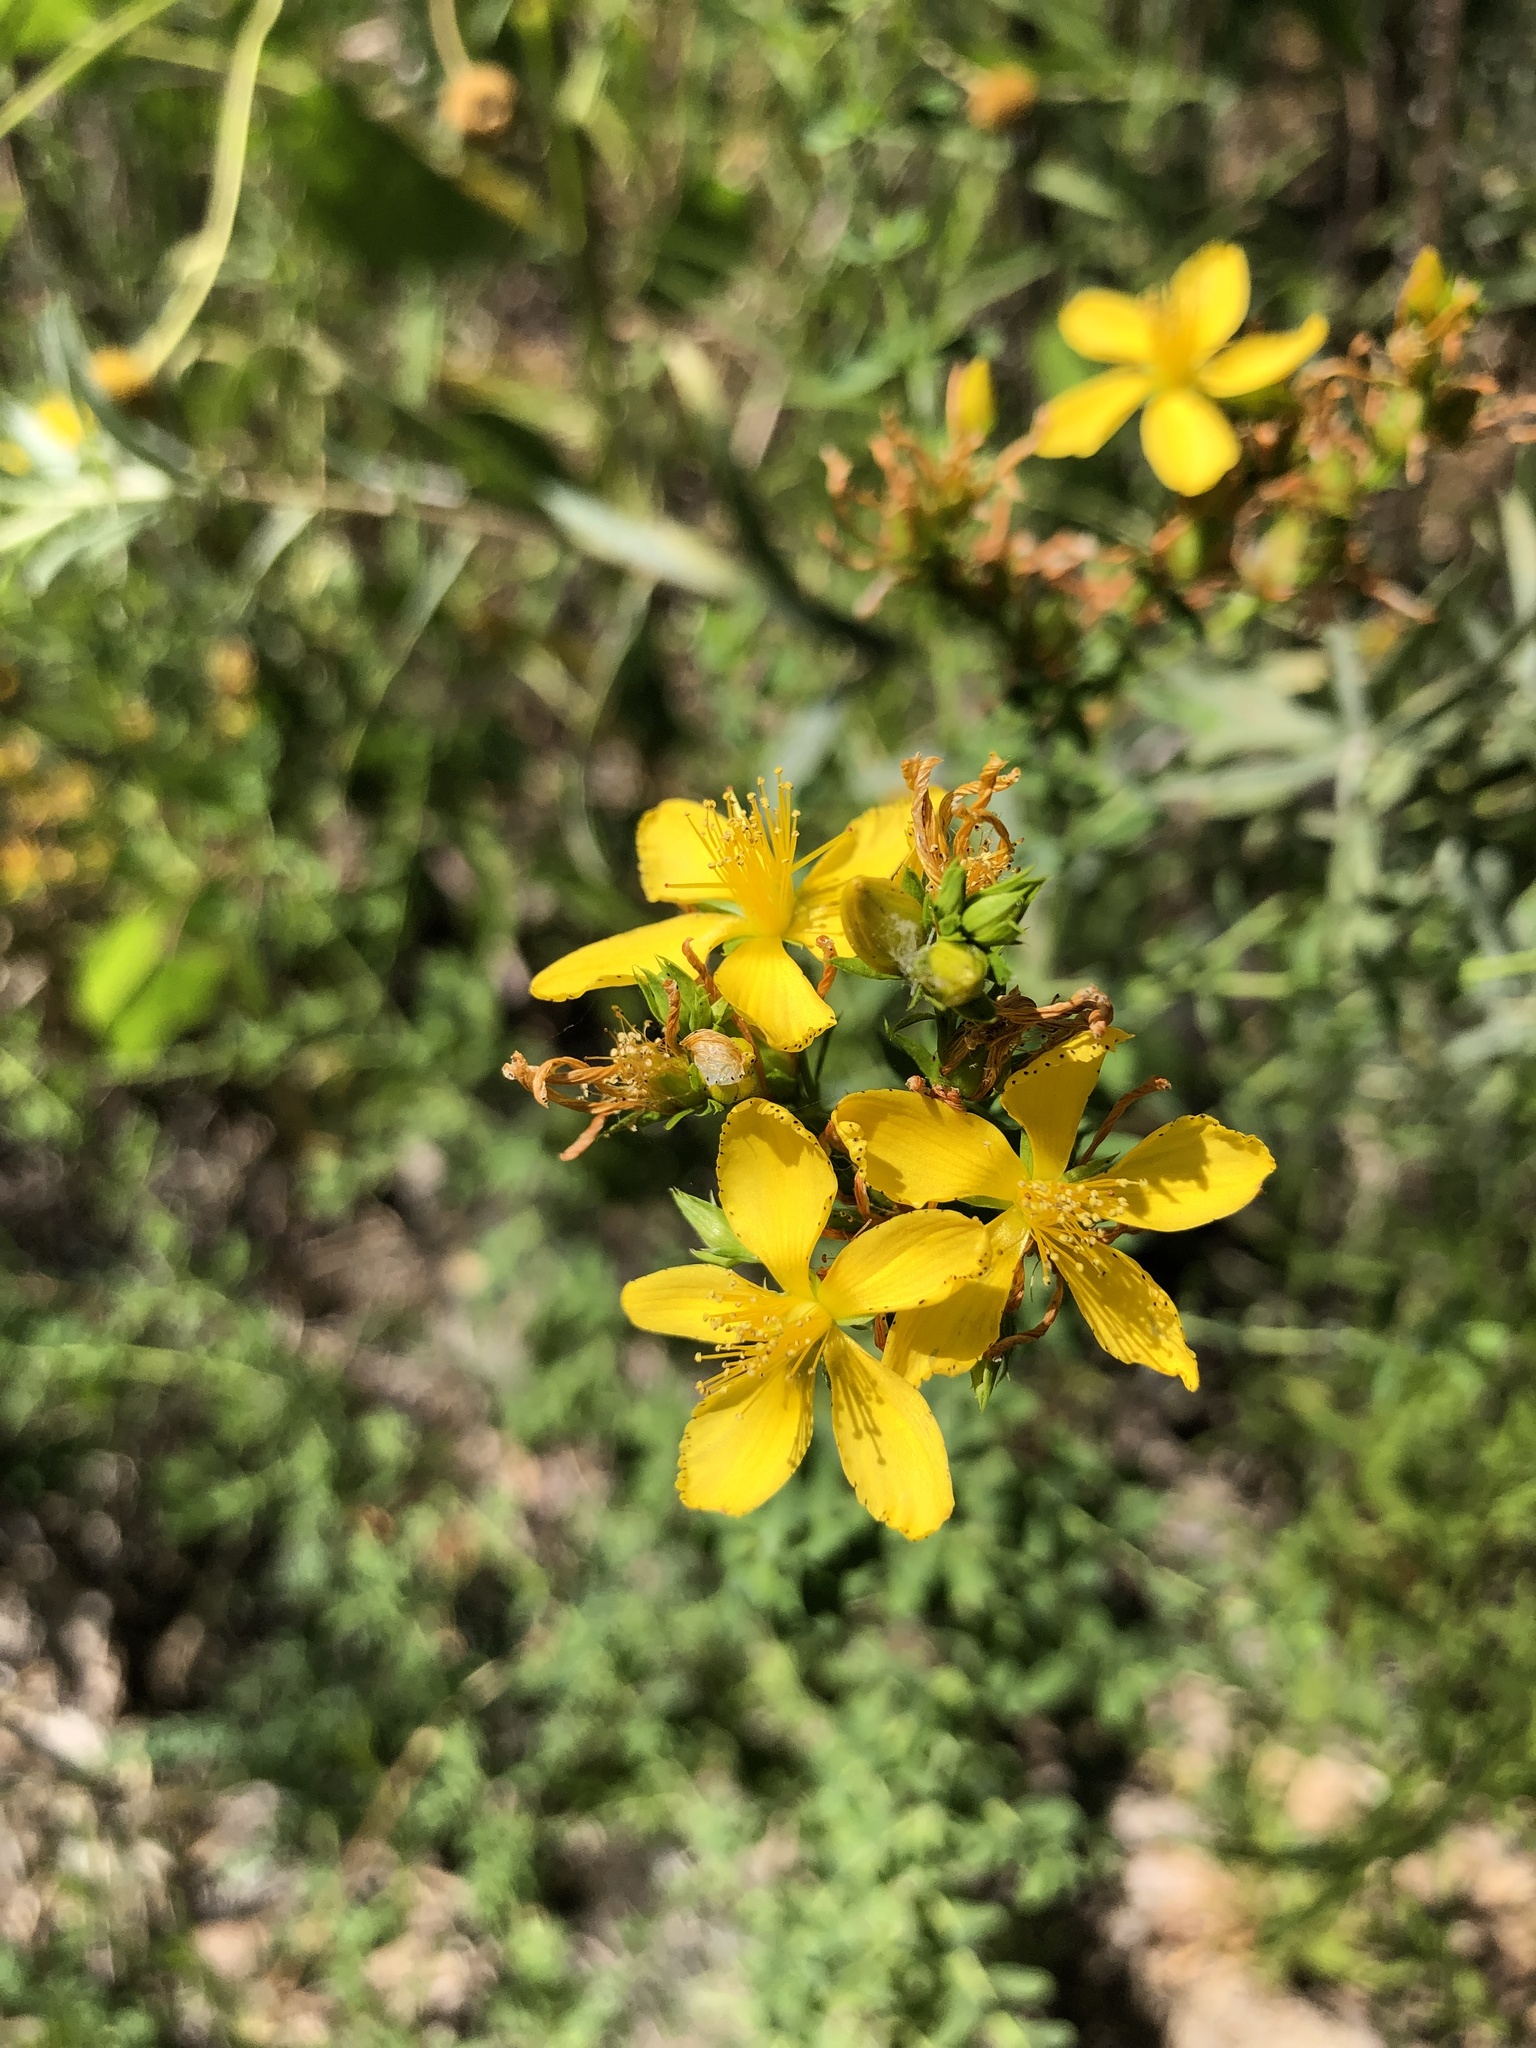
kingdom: Plantae
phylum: Tracheophyta
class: Magnoliopsida
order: Malpighiales
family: Hypericaceae
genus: Hypericum
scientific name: Hypericum perforatum
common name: Common st. johnswort
